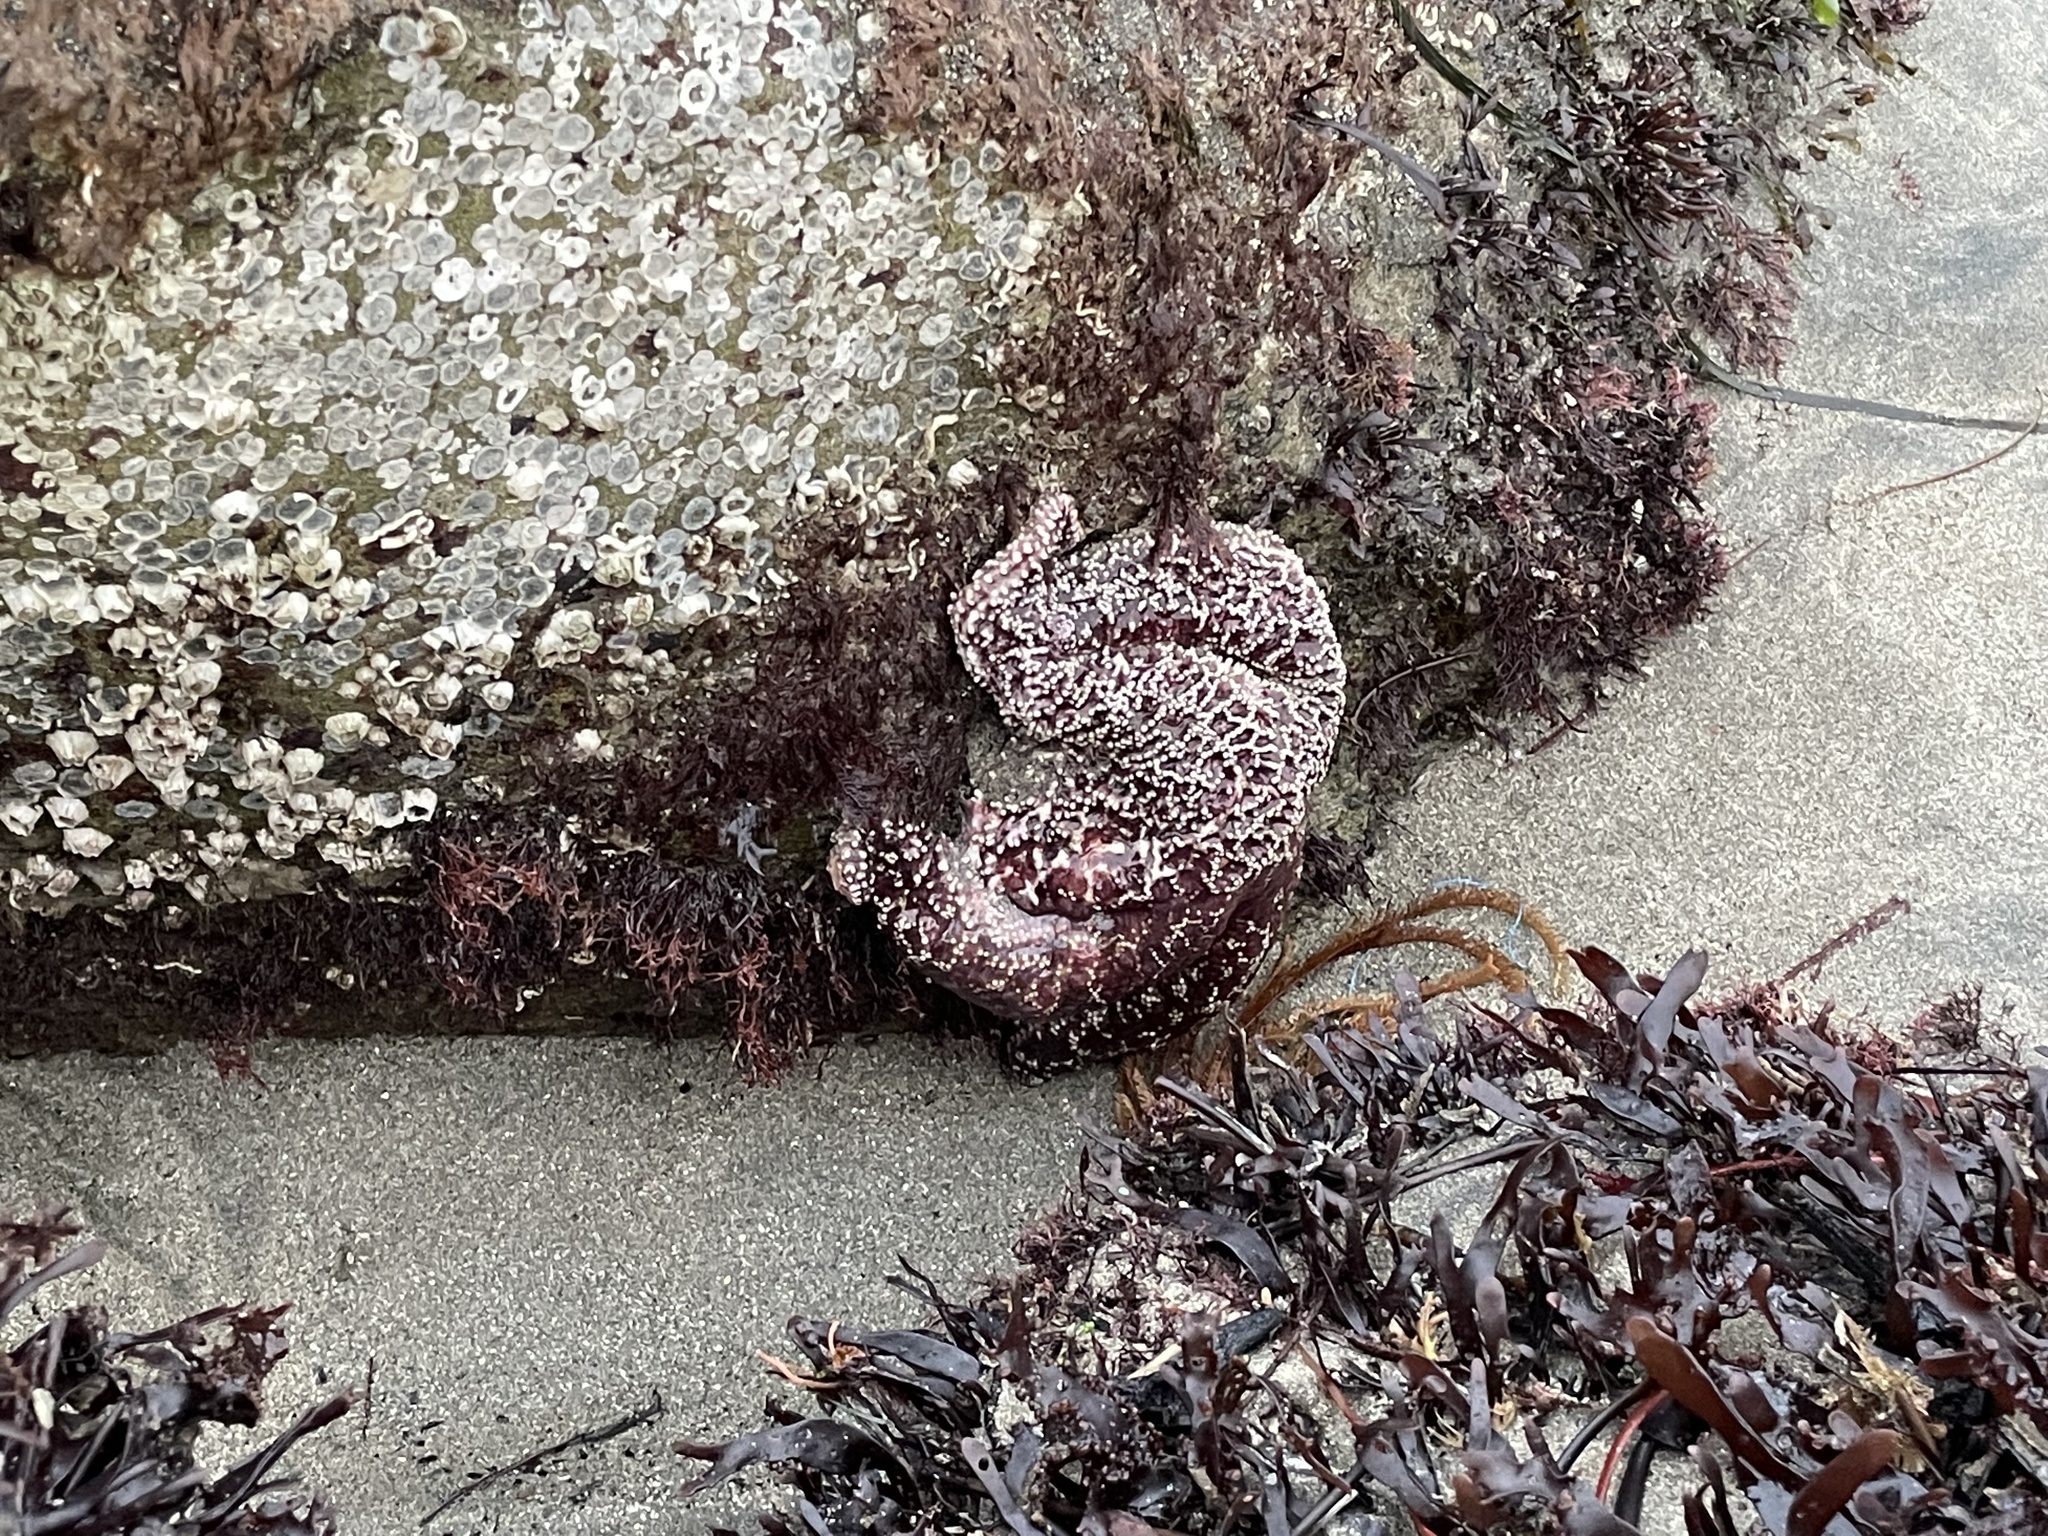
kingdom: Animalia
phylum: Echinodermata
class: Asteroidea
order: Forcipulatida
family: Asteriidae
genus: Pisaster
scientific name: Pisaster ochraceus
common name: Ochre stars
